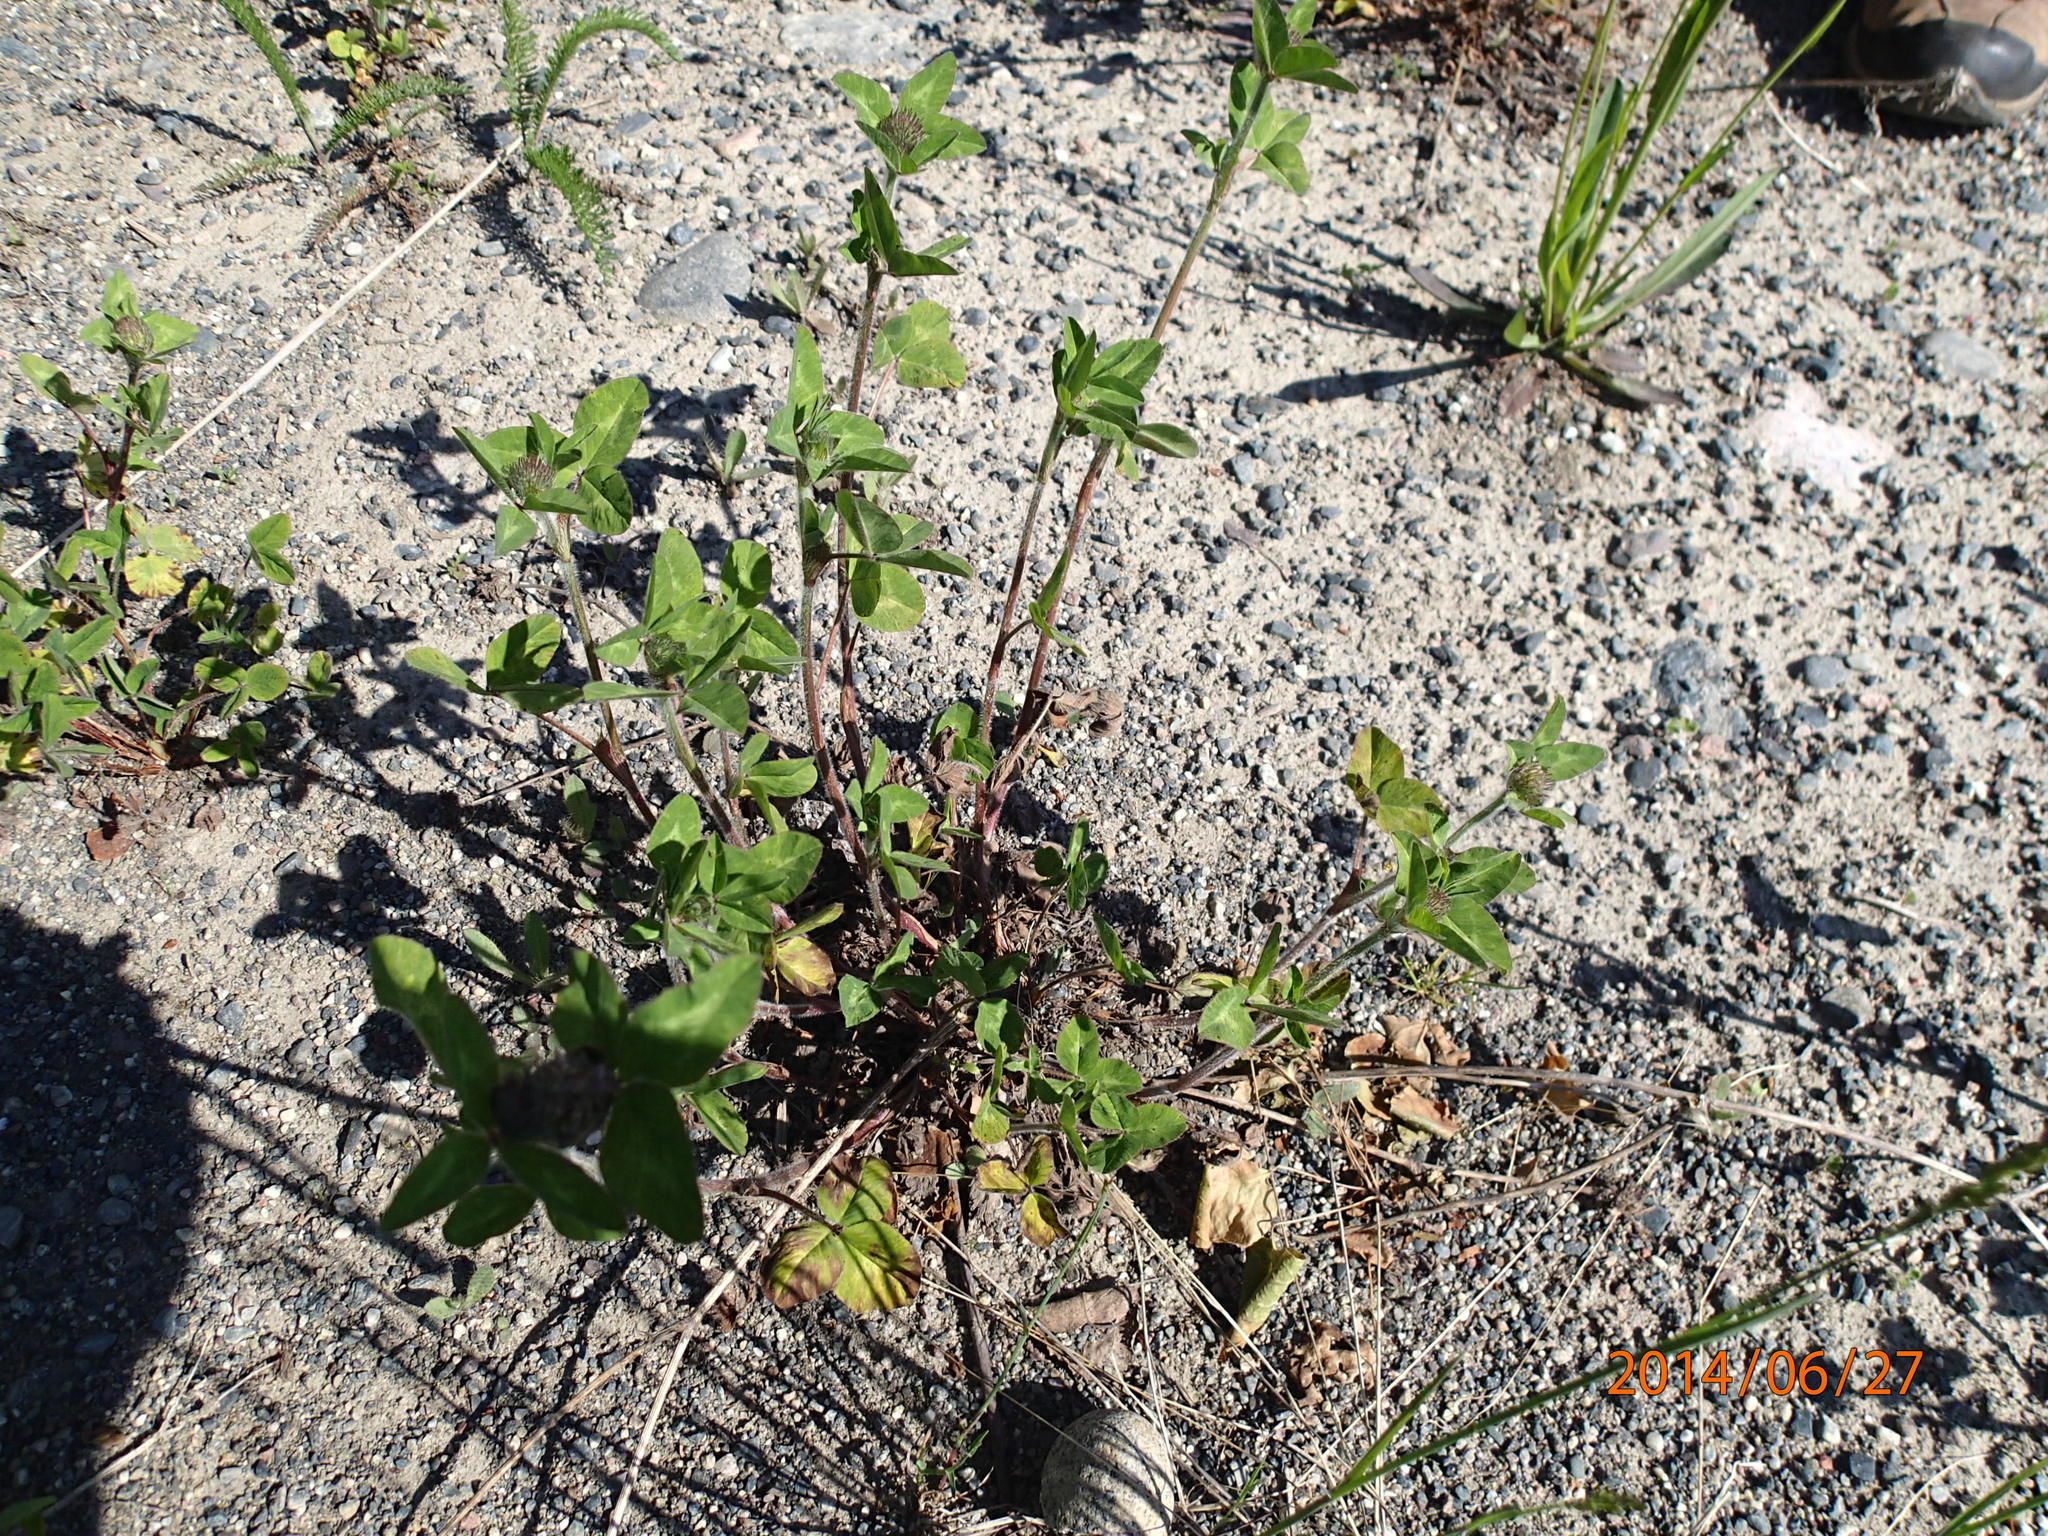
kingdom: Plantae
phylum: Tracheophyta
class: Magnoliopsida
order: Fabales
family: Fabaceae
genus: Trifolium
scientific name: Trifolium pratense
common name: Red clover
